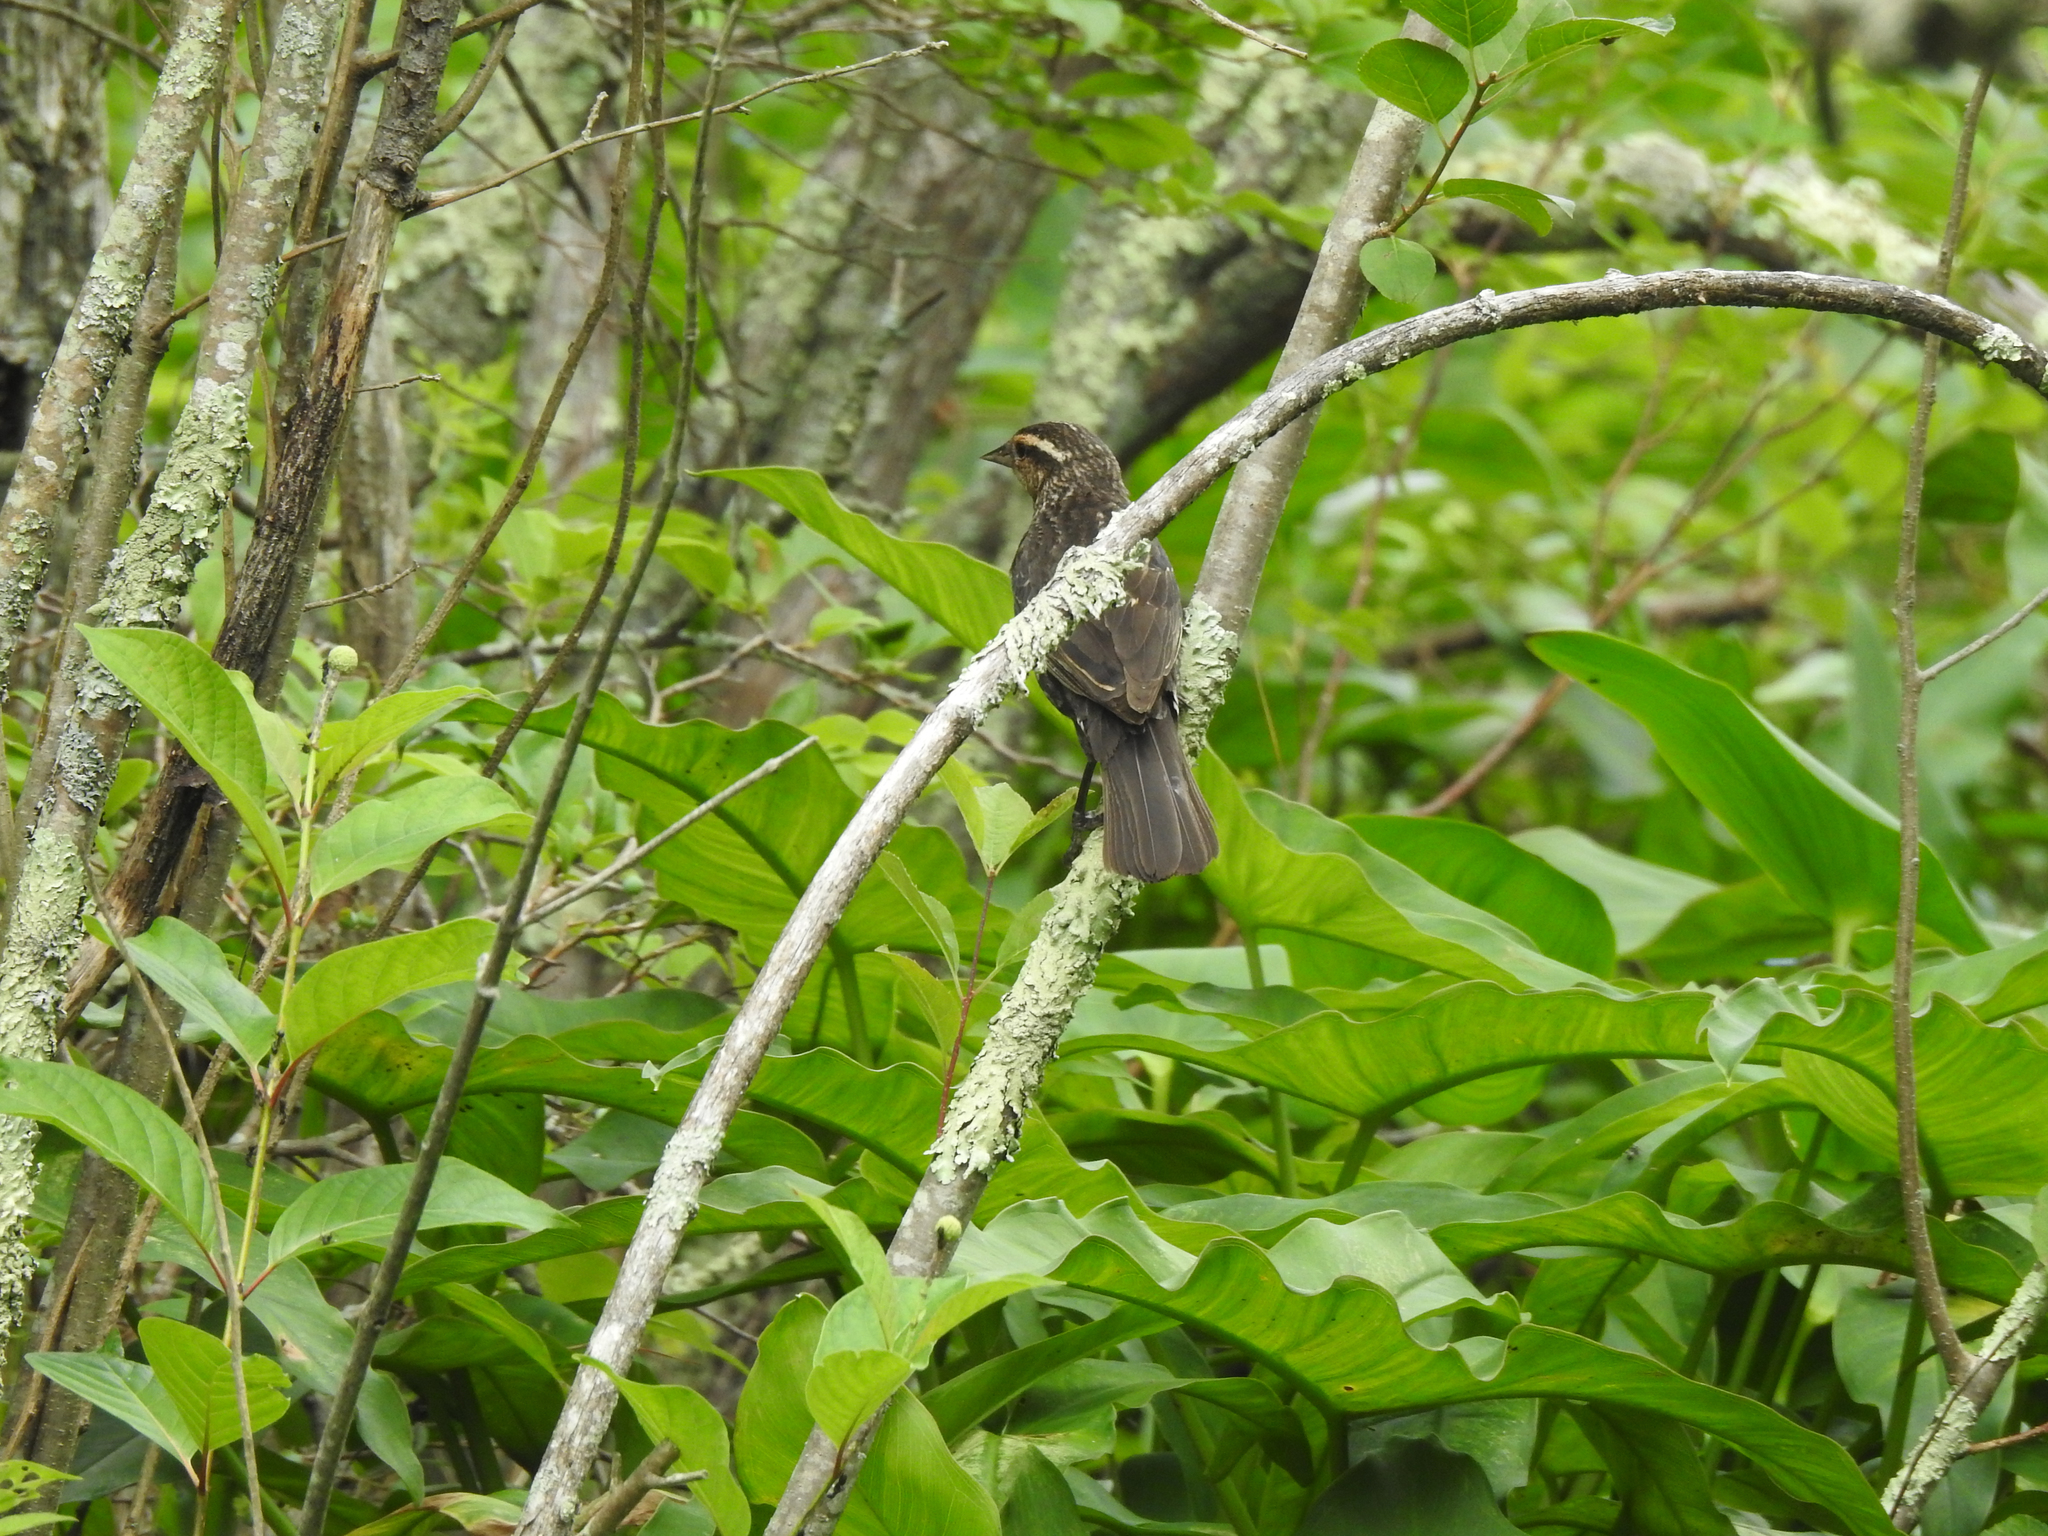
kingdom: Animalia
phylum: Chordata
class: Aves
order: Passeriformes
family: Icteridae
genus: Agelaius
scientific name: Agelaius phoeniceus
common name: Red-winged blackbird
